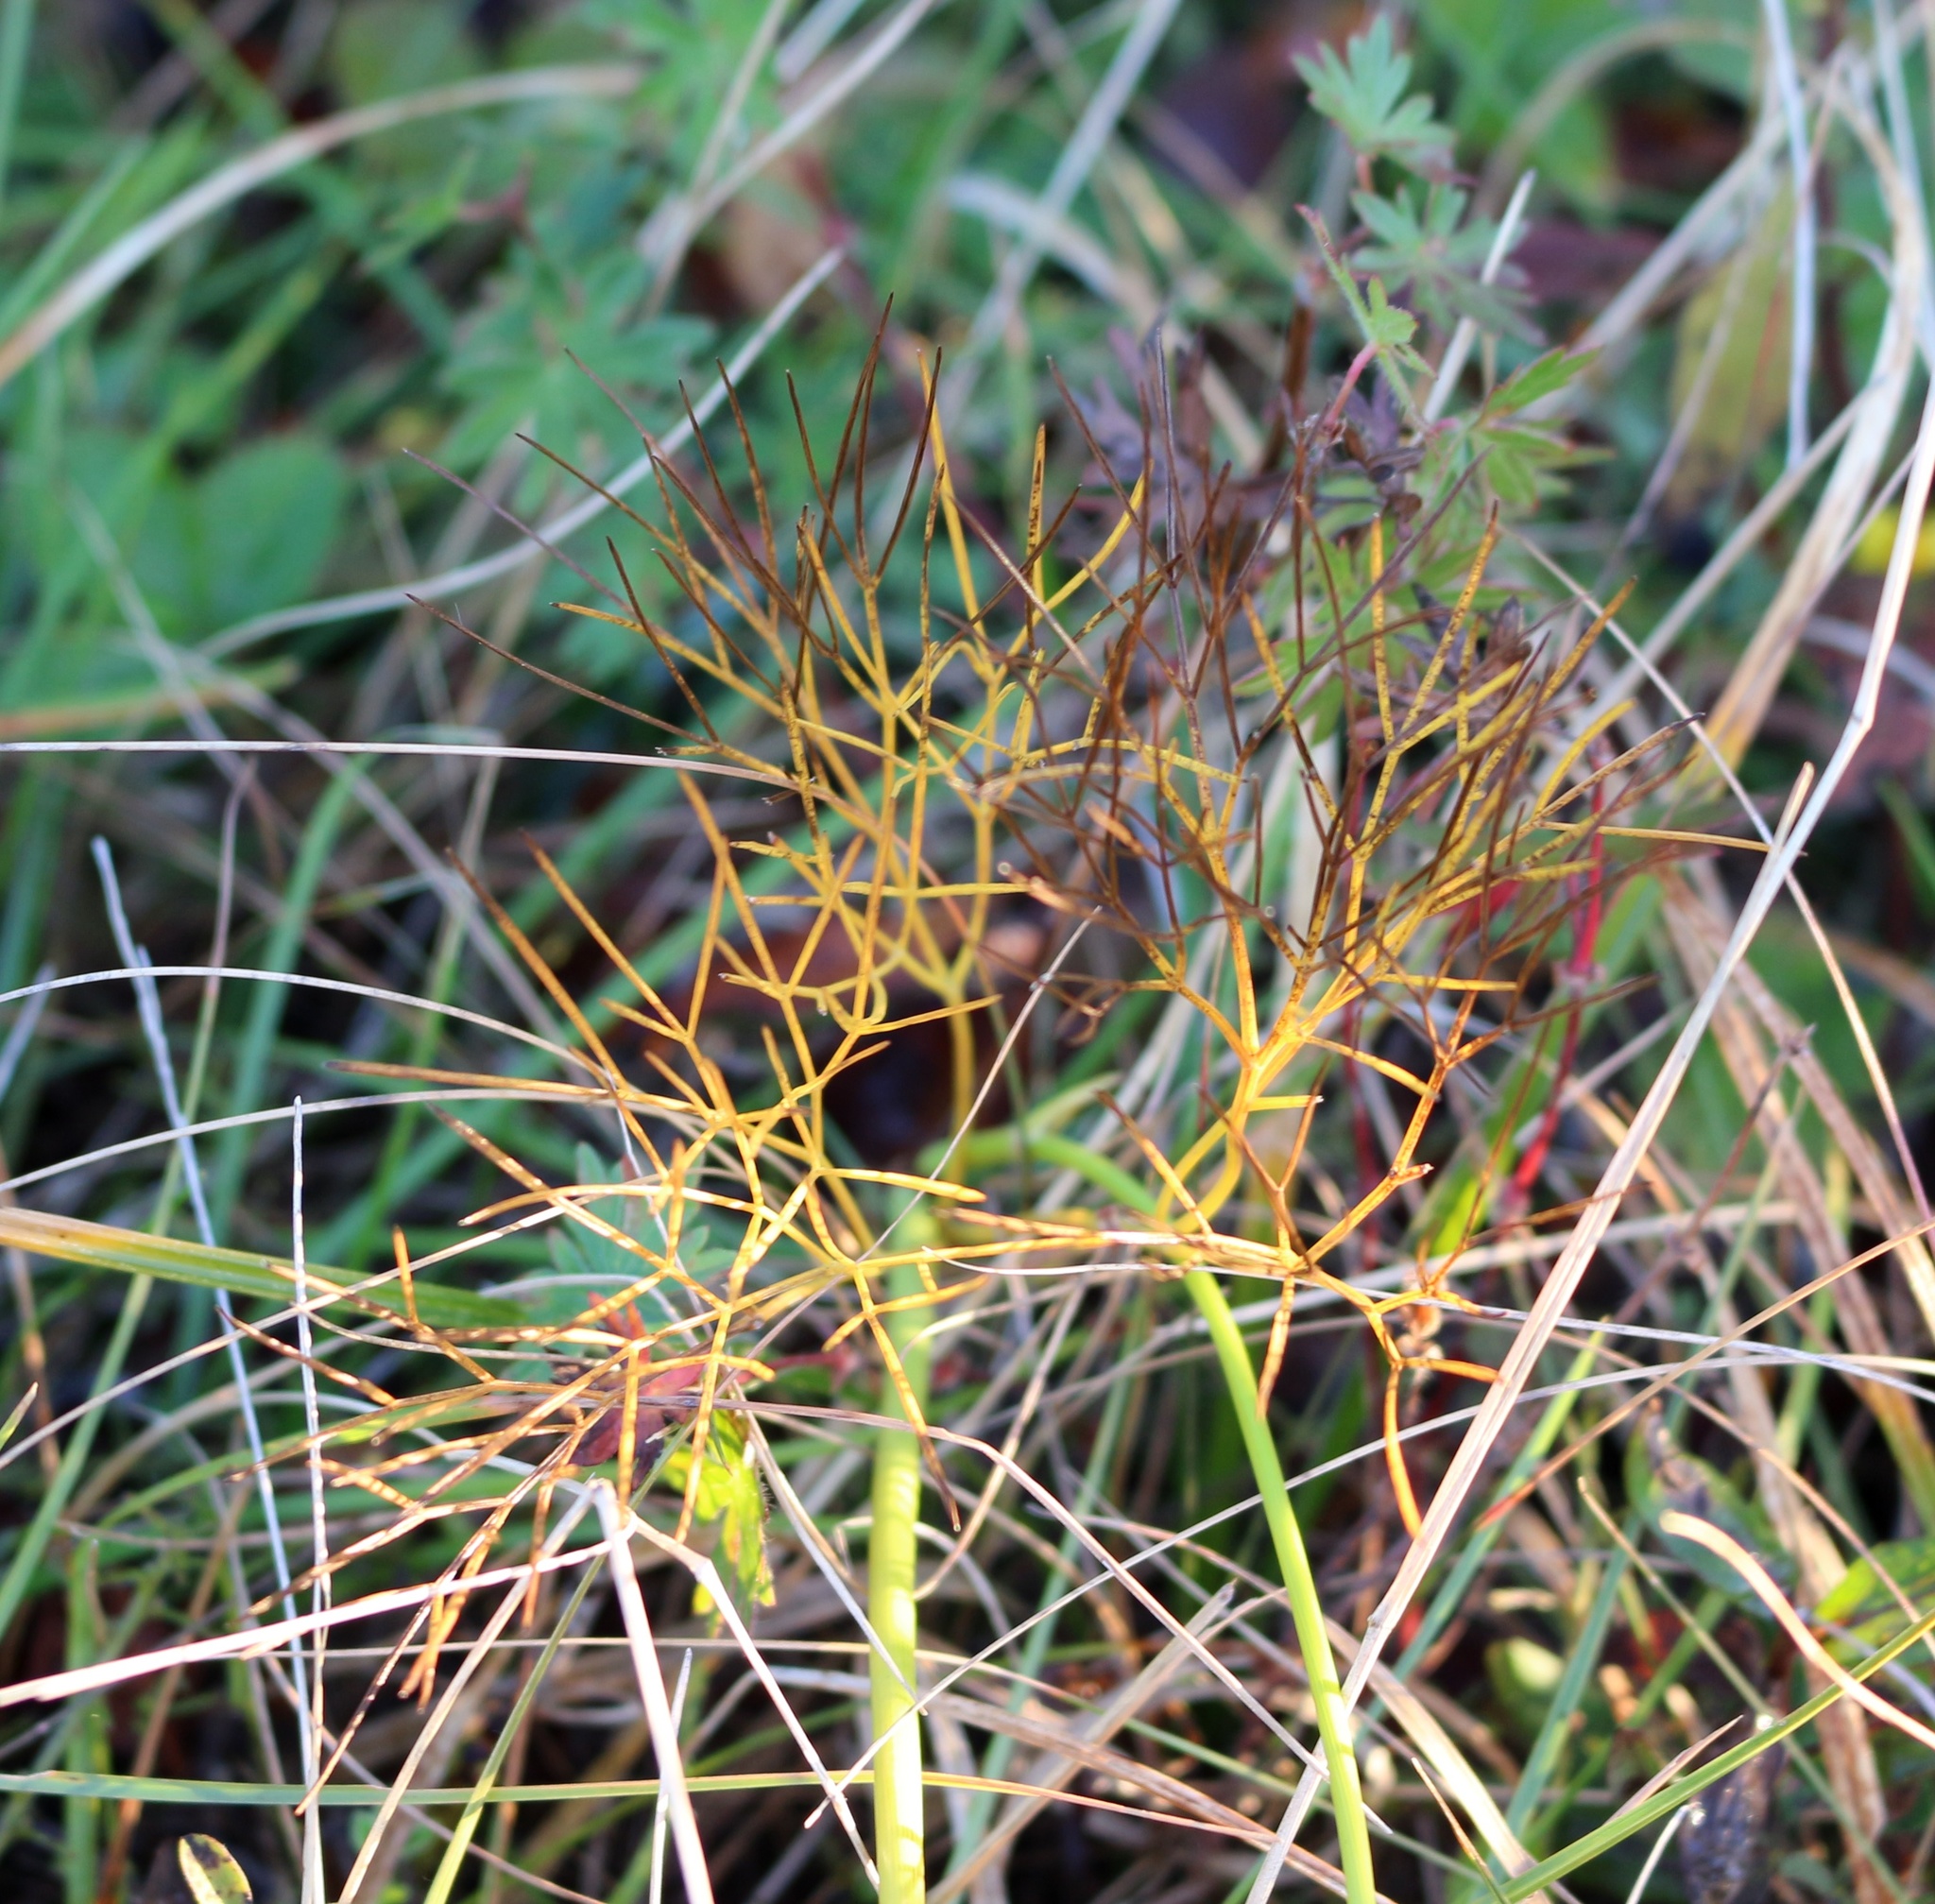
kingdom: Plantae
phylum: Tracheophyta
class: Magnoliopsida
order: Apiales
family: Apiaceae
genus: Peucedanum
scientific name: Peucedanum longifolium
